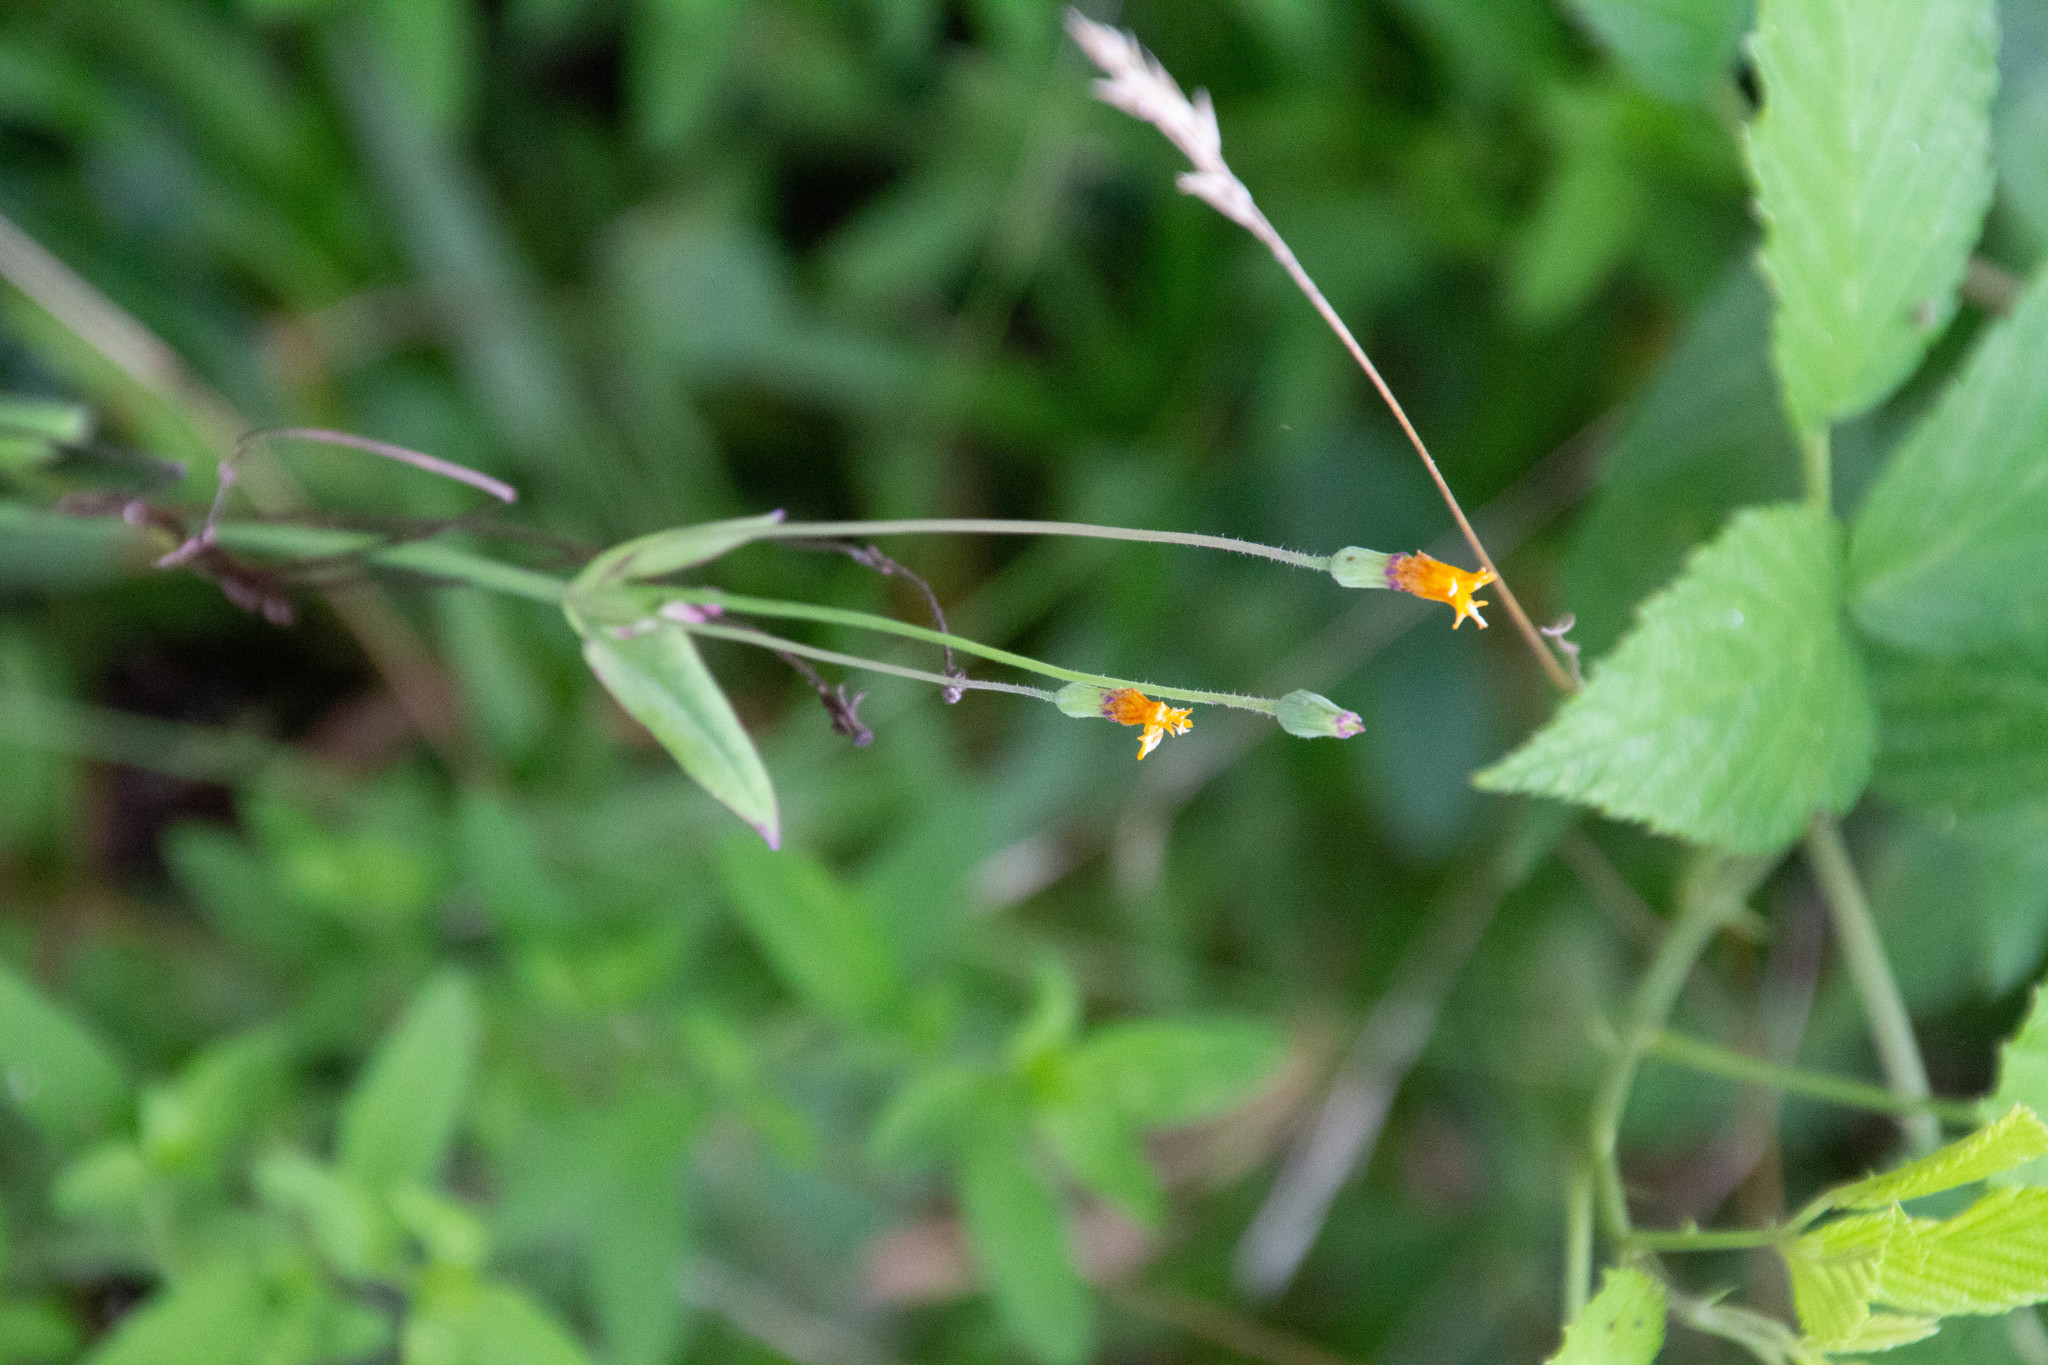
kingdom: Plantae
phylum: Tracheophyta
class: Magnoliopsida
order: Asterales
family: Asteraceae
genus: Krigia
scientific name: Krigia biflora
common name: Orange dwarf-dandelion
